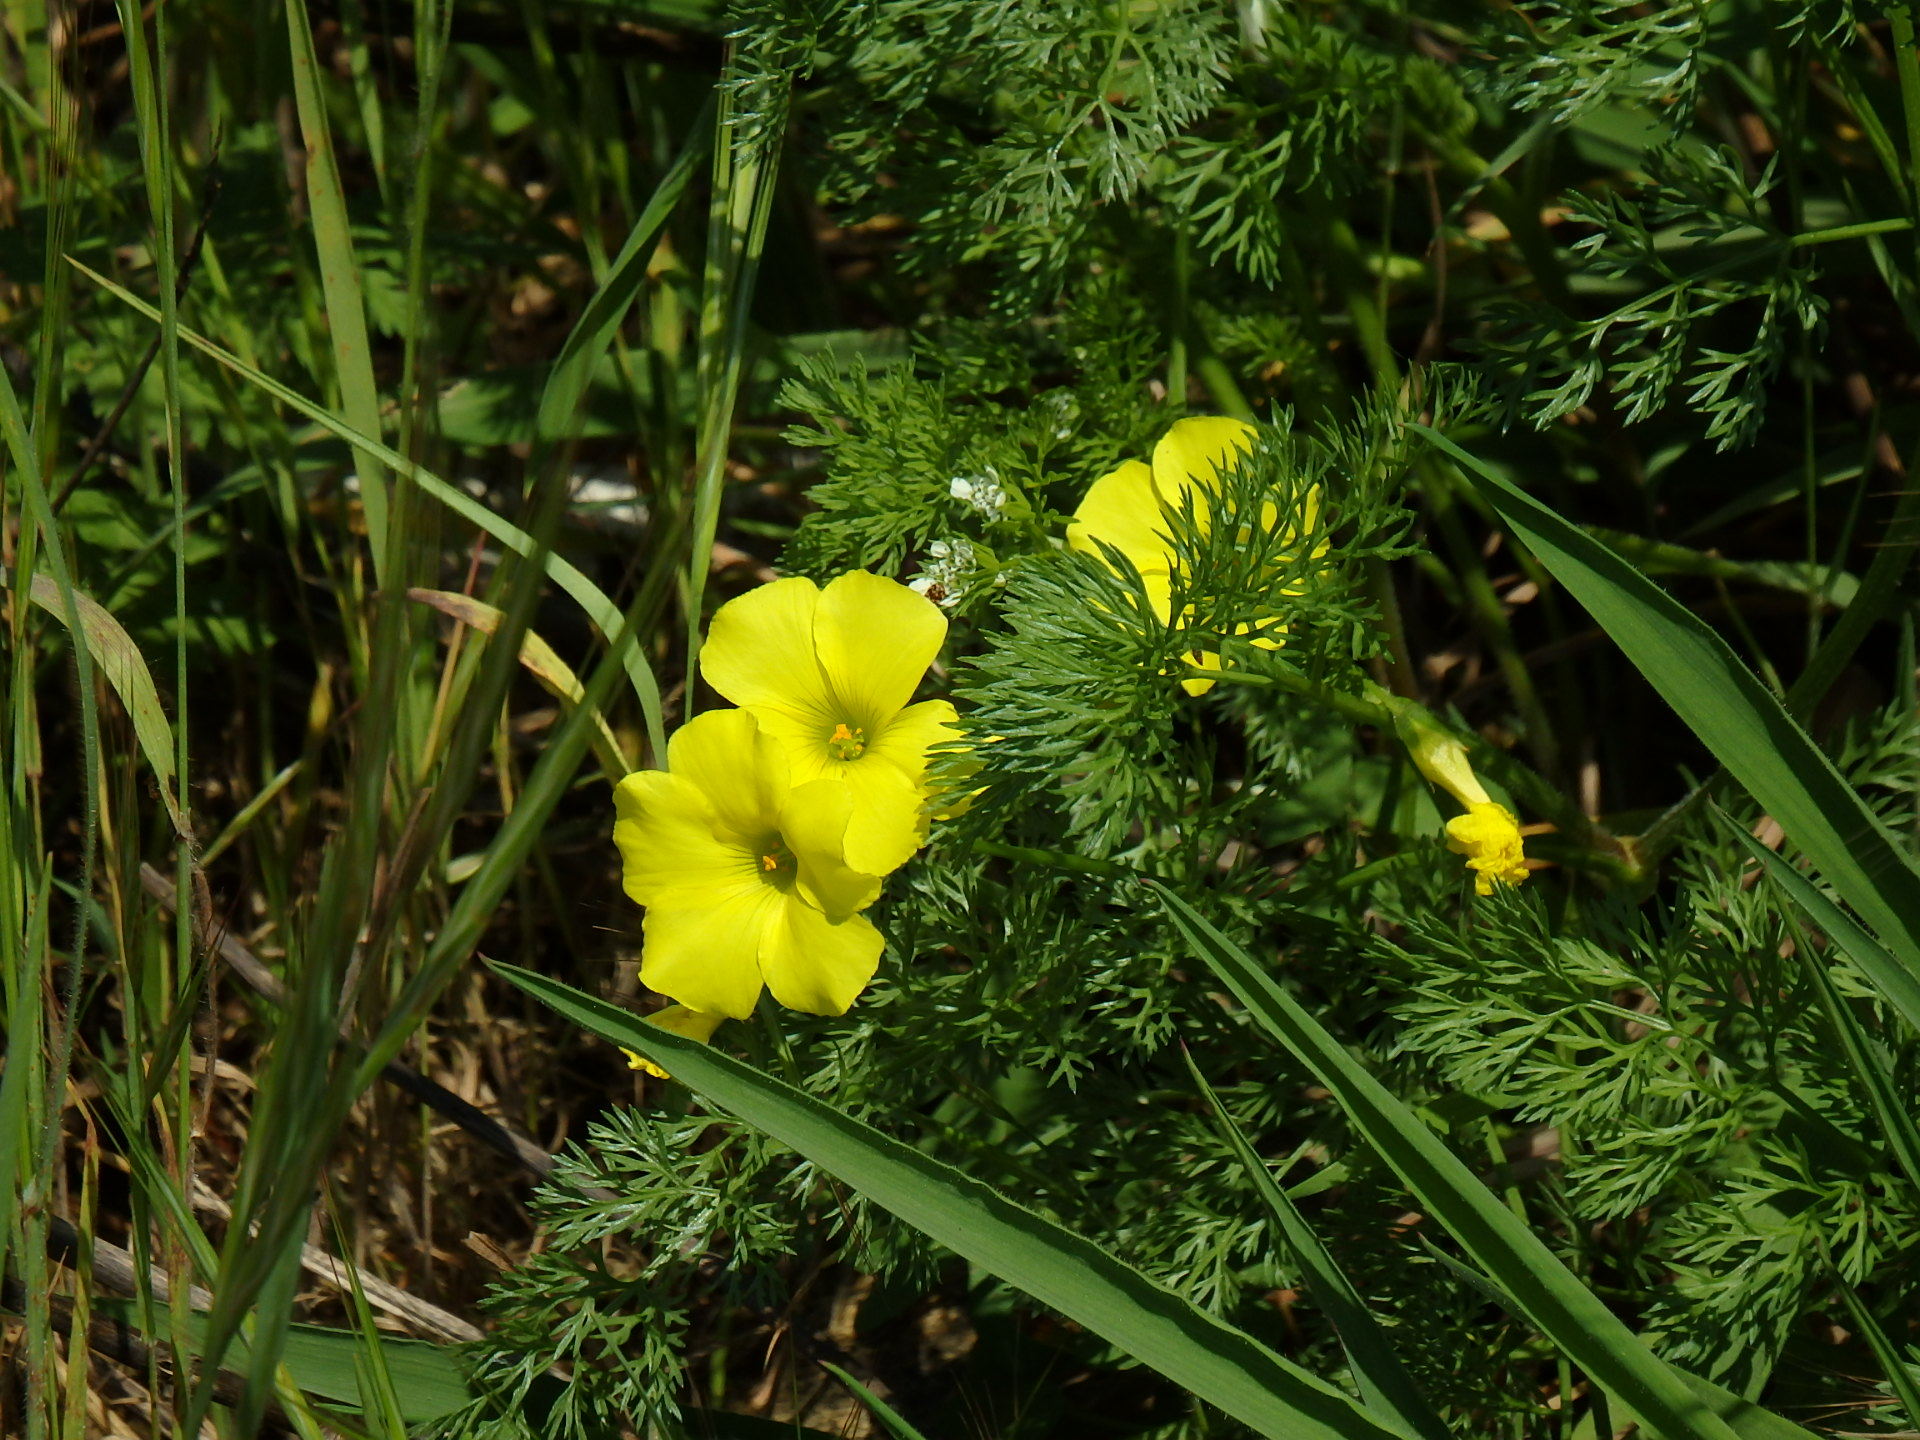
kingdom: Plantae
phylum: Tracheophyta
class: Magnoliopsida
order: Oxalidales
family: Oxalidaceae
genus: Oxalis
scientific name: Oxalis pes-caprae
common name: Bermuda-buttercup
